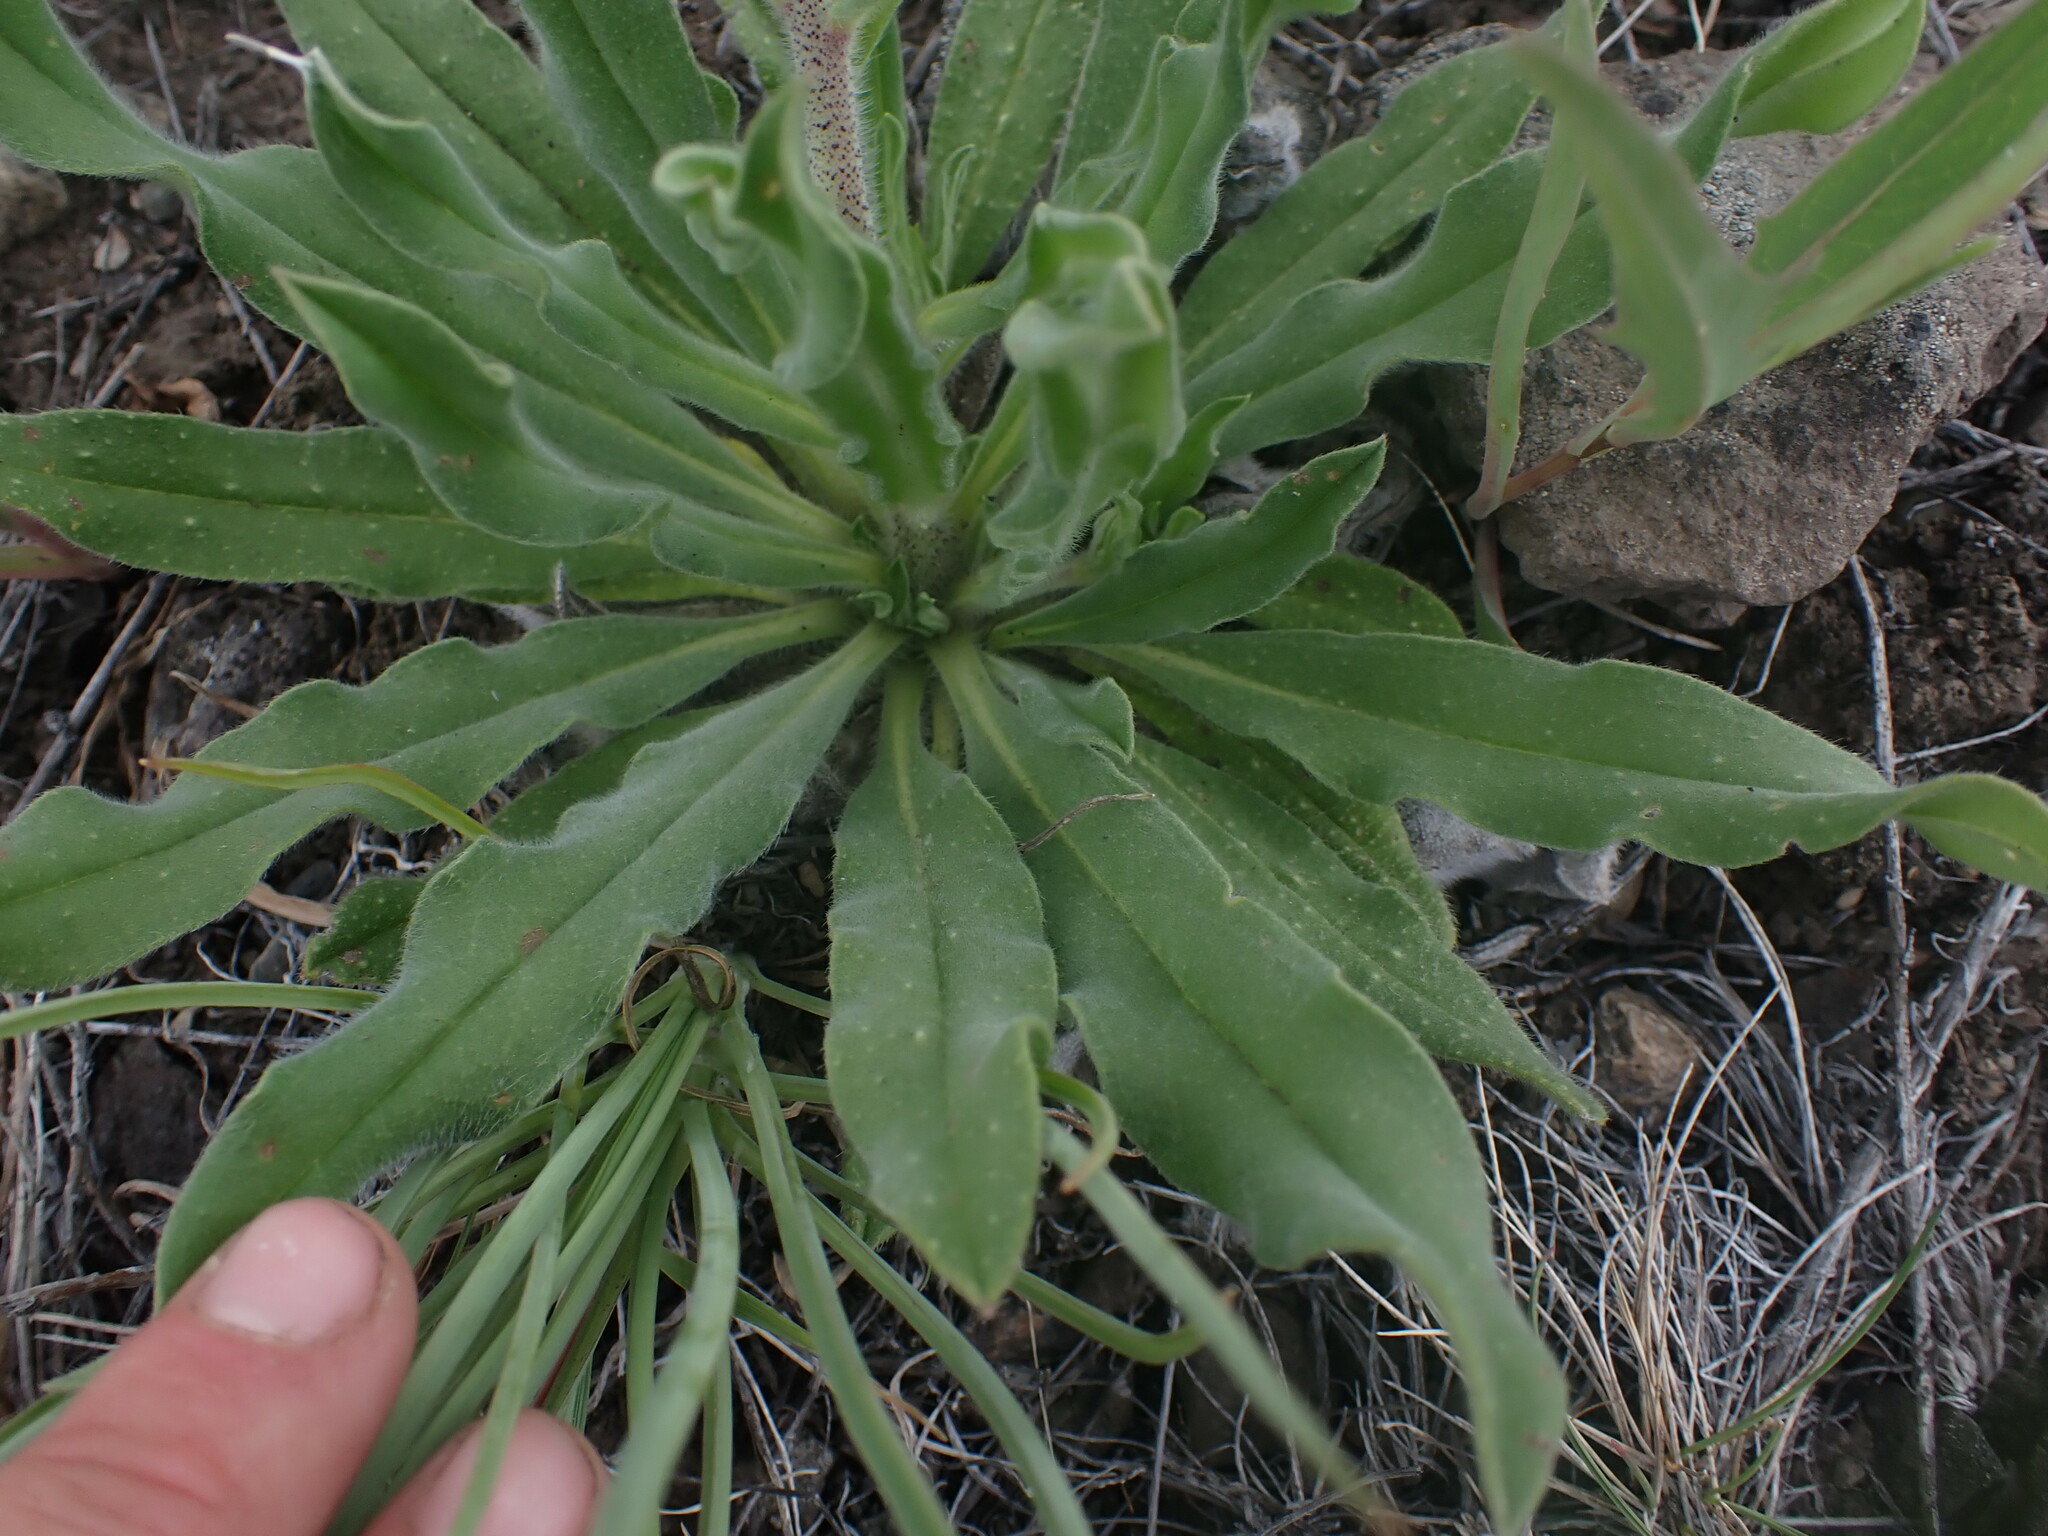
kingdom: Plantae
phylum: Tracheophyta
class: Magnoliopsida
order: Boraginales
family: Boraginaceae
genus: Echium
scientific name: Echium vulgare
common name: Common viper's bugloss
